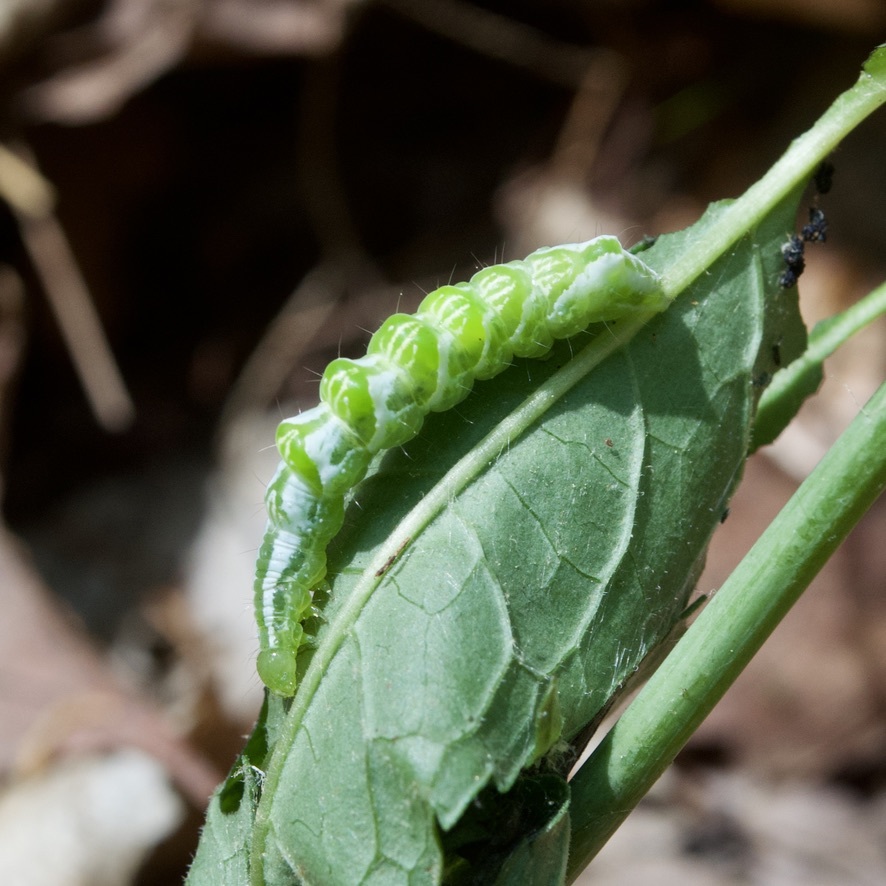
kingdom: Animalia
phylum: Arthropoda
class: Insecta
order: Lepidoptera
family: Noctuidae
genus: Eosphoropteryx
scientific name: Eosphoropteryx thyatyroides
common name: Pinkpatched looper moth
